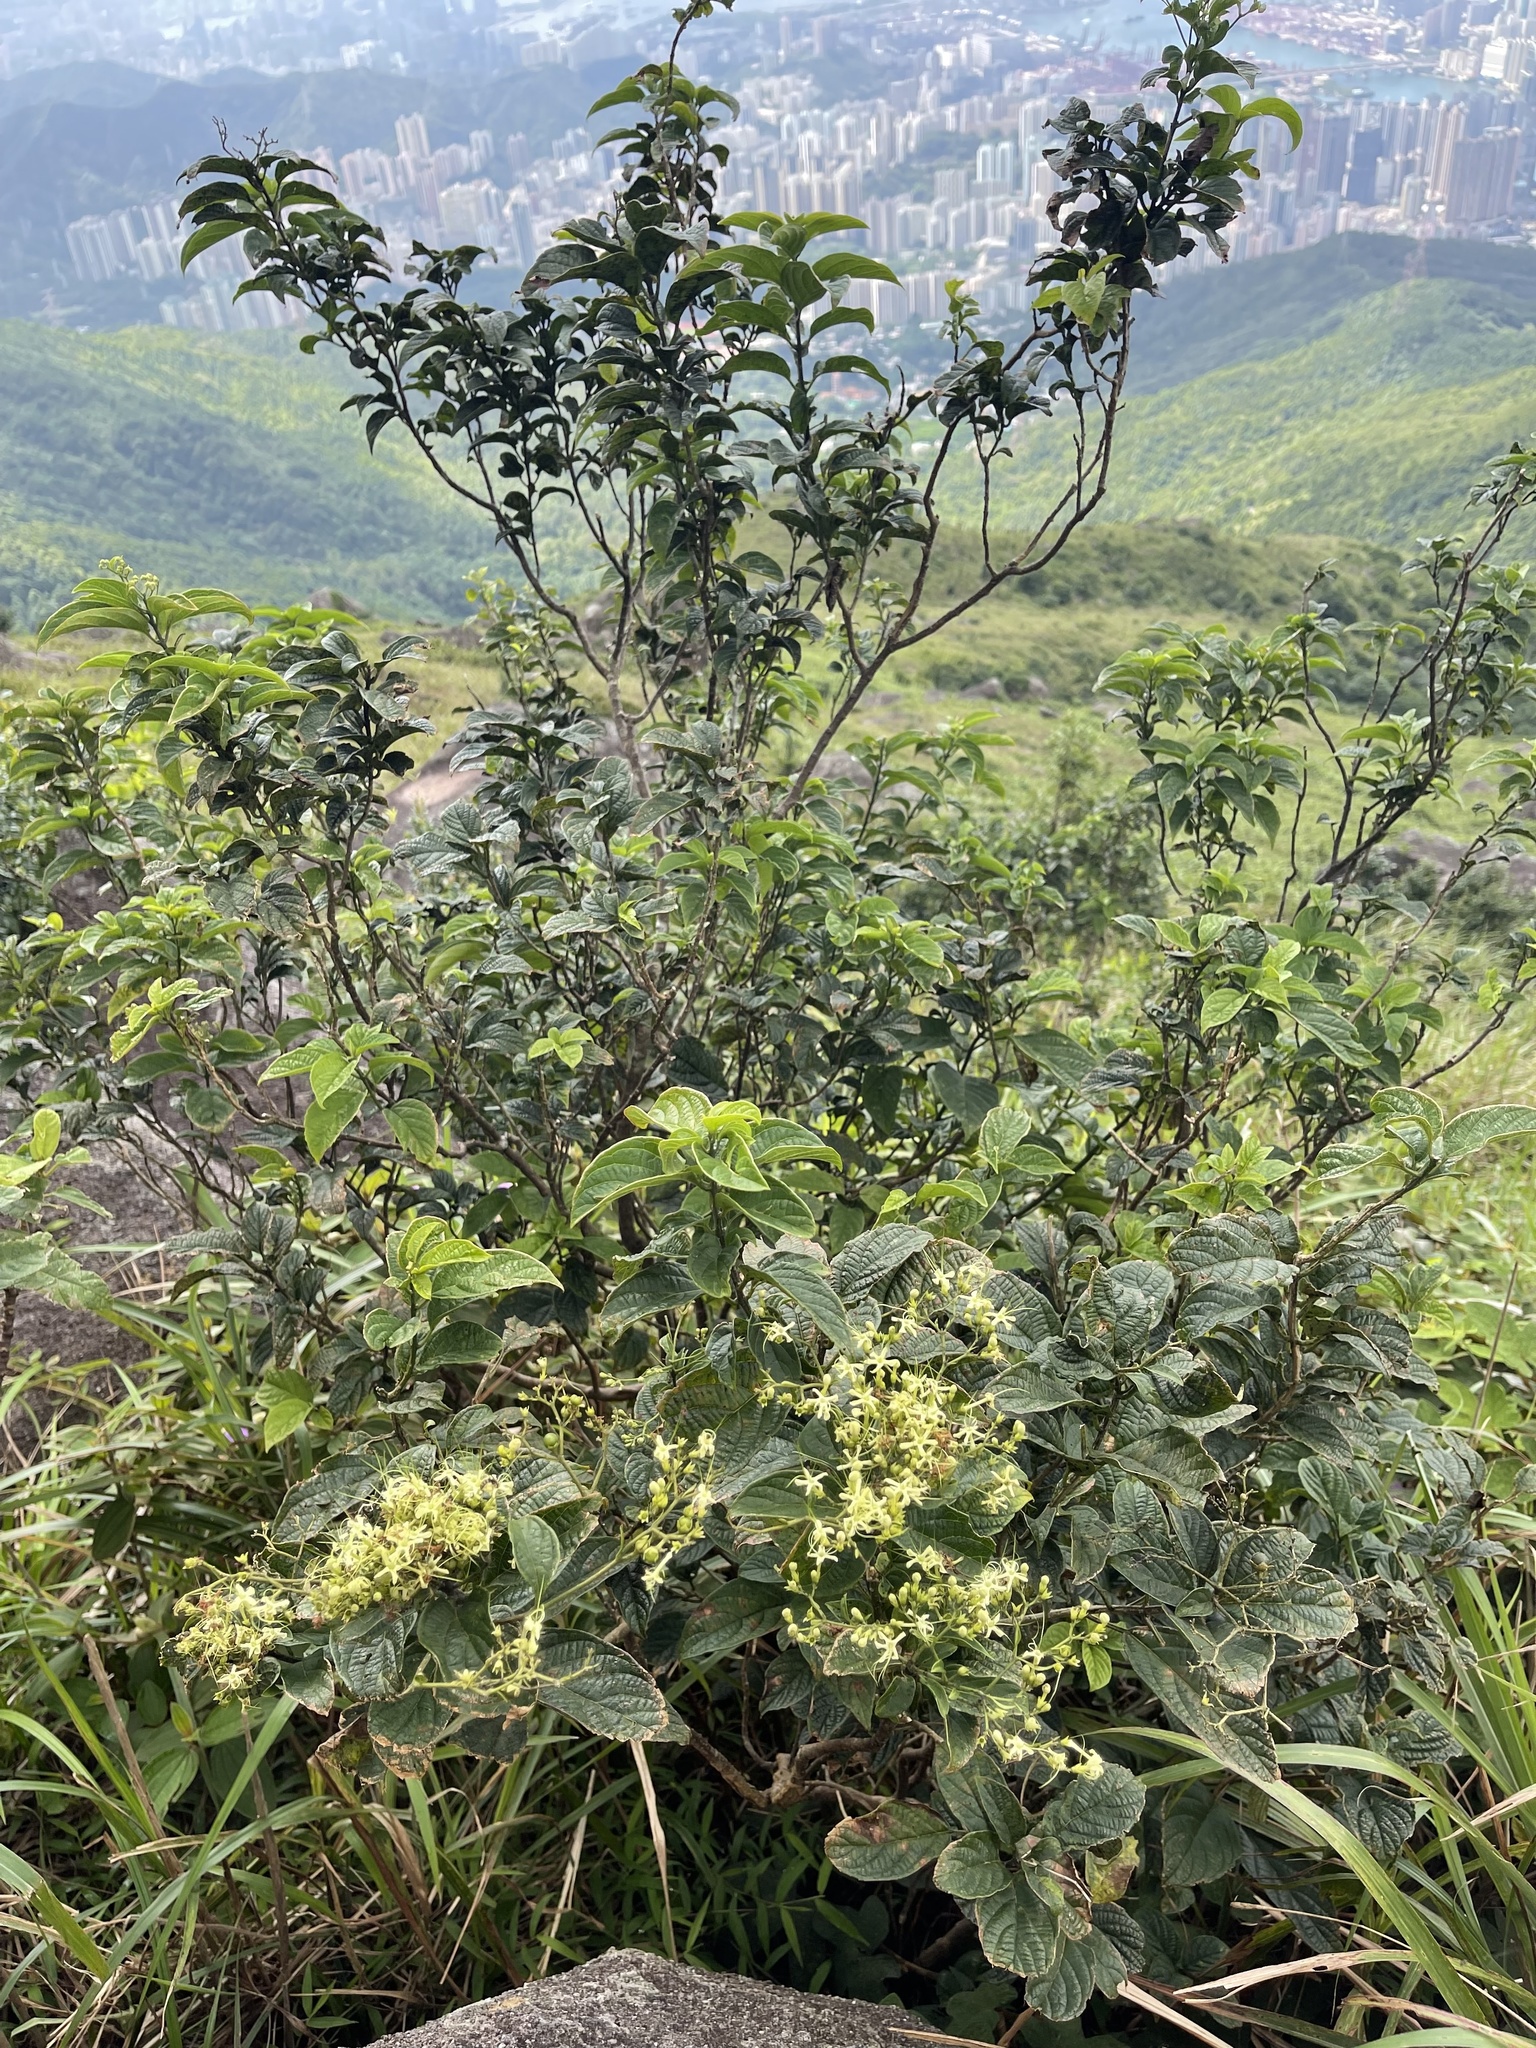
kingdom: Plantae
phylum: Tracheophyta
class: Magnoliopsida
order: Lamiales
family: Lamiaceae
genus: Clerodendrum
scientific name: Clerodendrum cyrtophyllum
